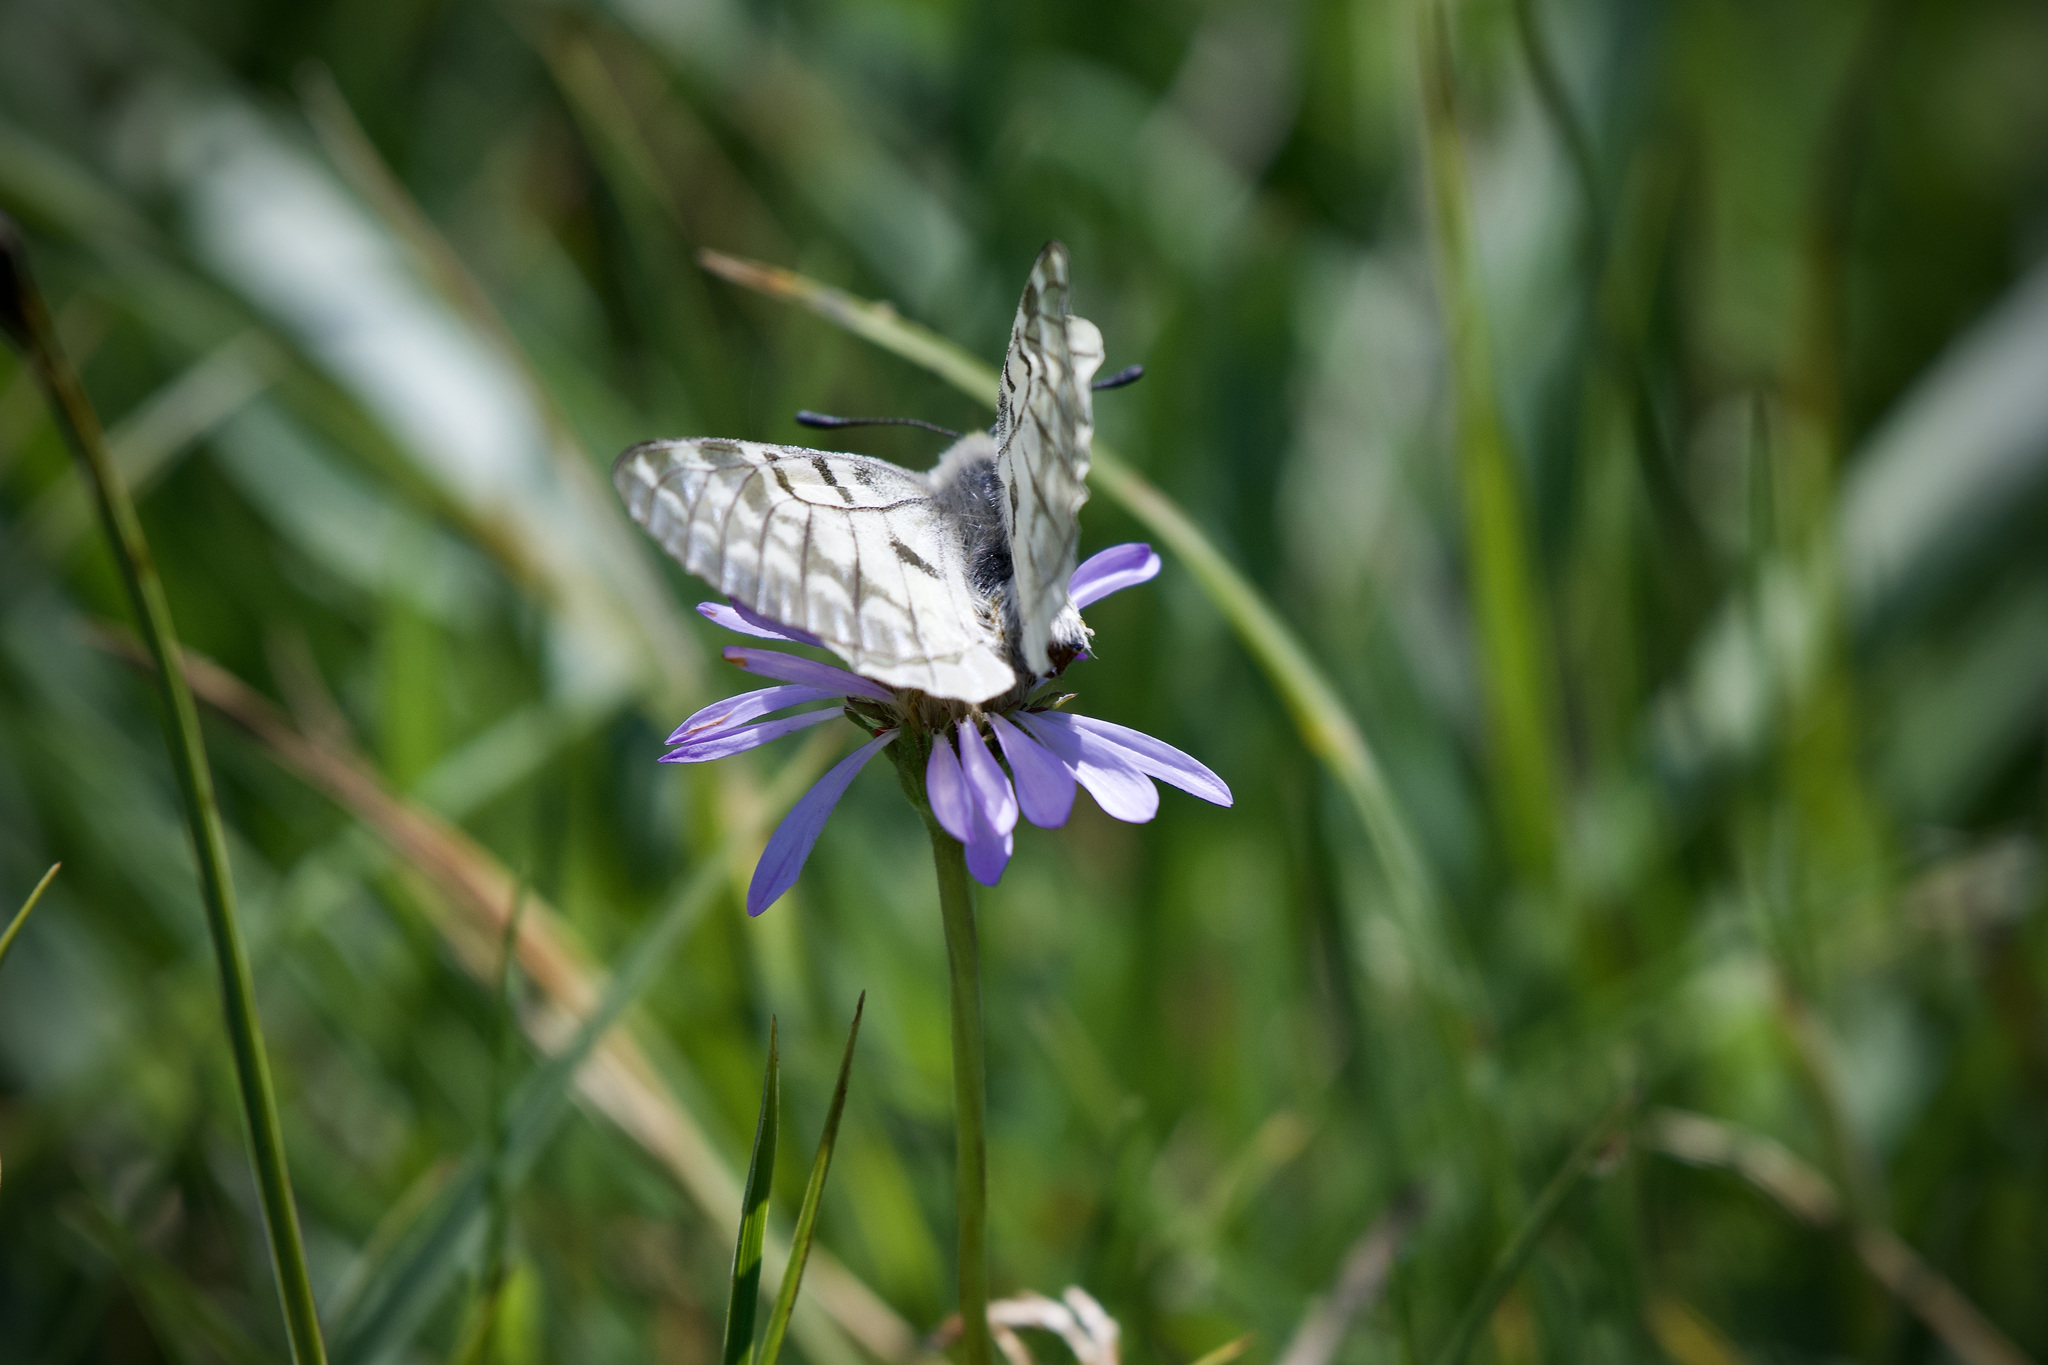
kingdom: Animalia
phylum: Arthropoda
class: Insecta
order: Lepidoptera
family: Papilionidae
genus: Parnassius
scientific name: Parnassius clodius
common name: American apollo
